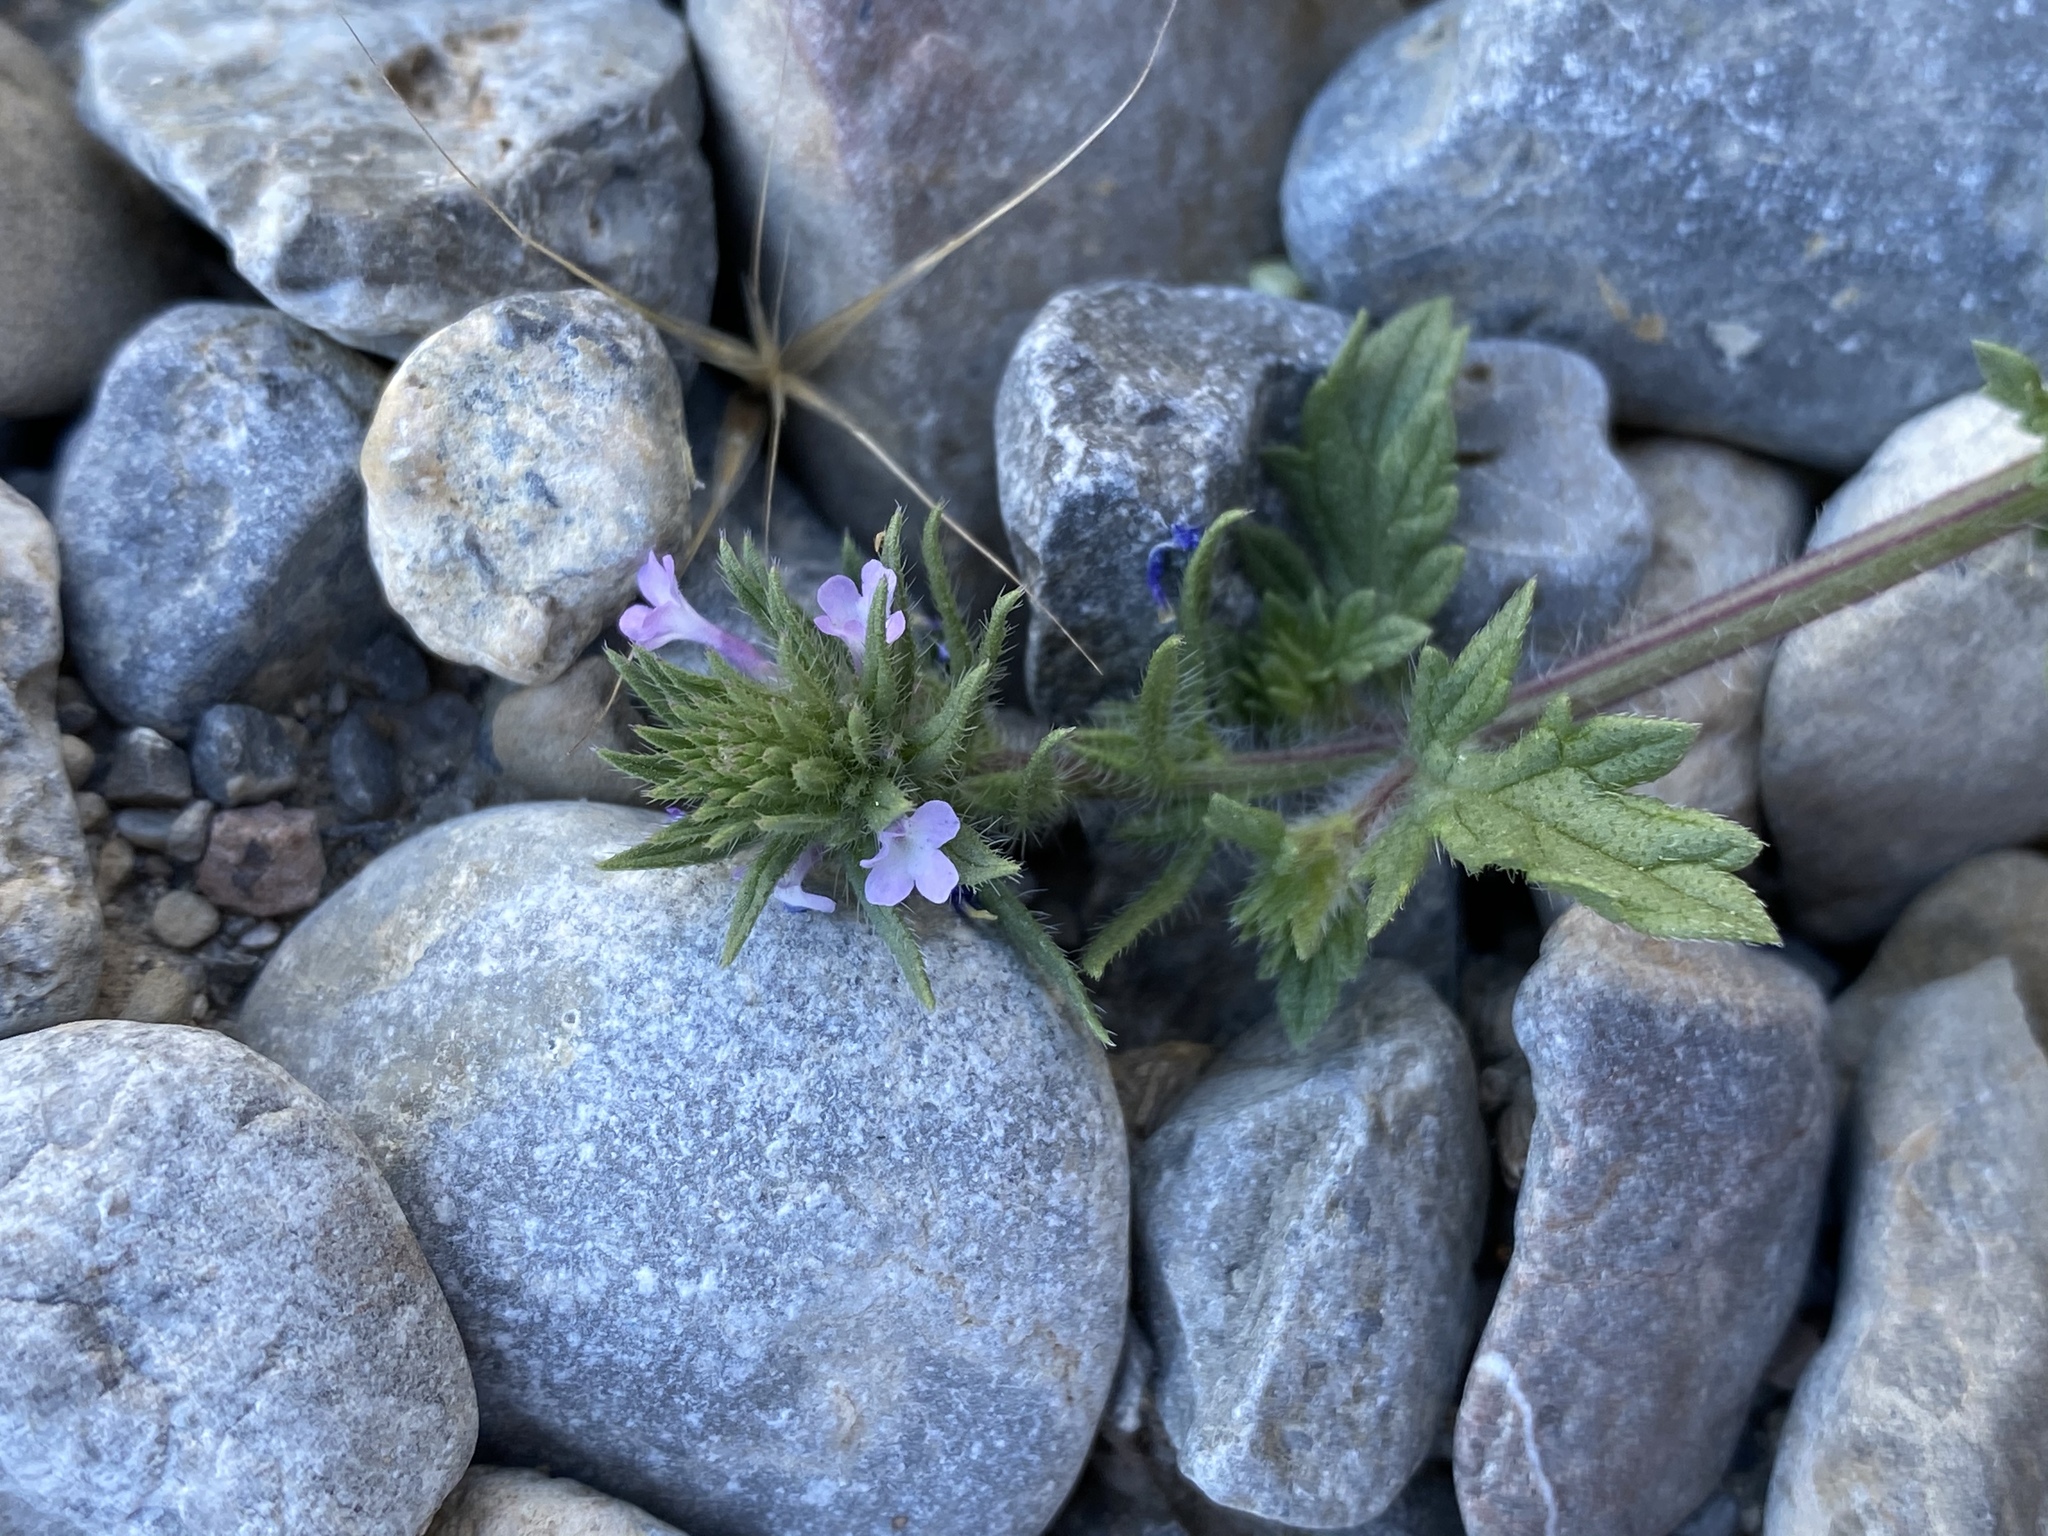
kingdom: Plantae
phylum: Tracheophyta
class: Magnoliopsida
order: Lamiales
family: Verbenaceae
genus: Verbena
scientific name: Verbena bracteata
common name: Bracted vervain
